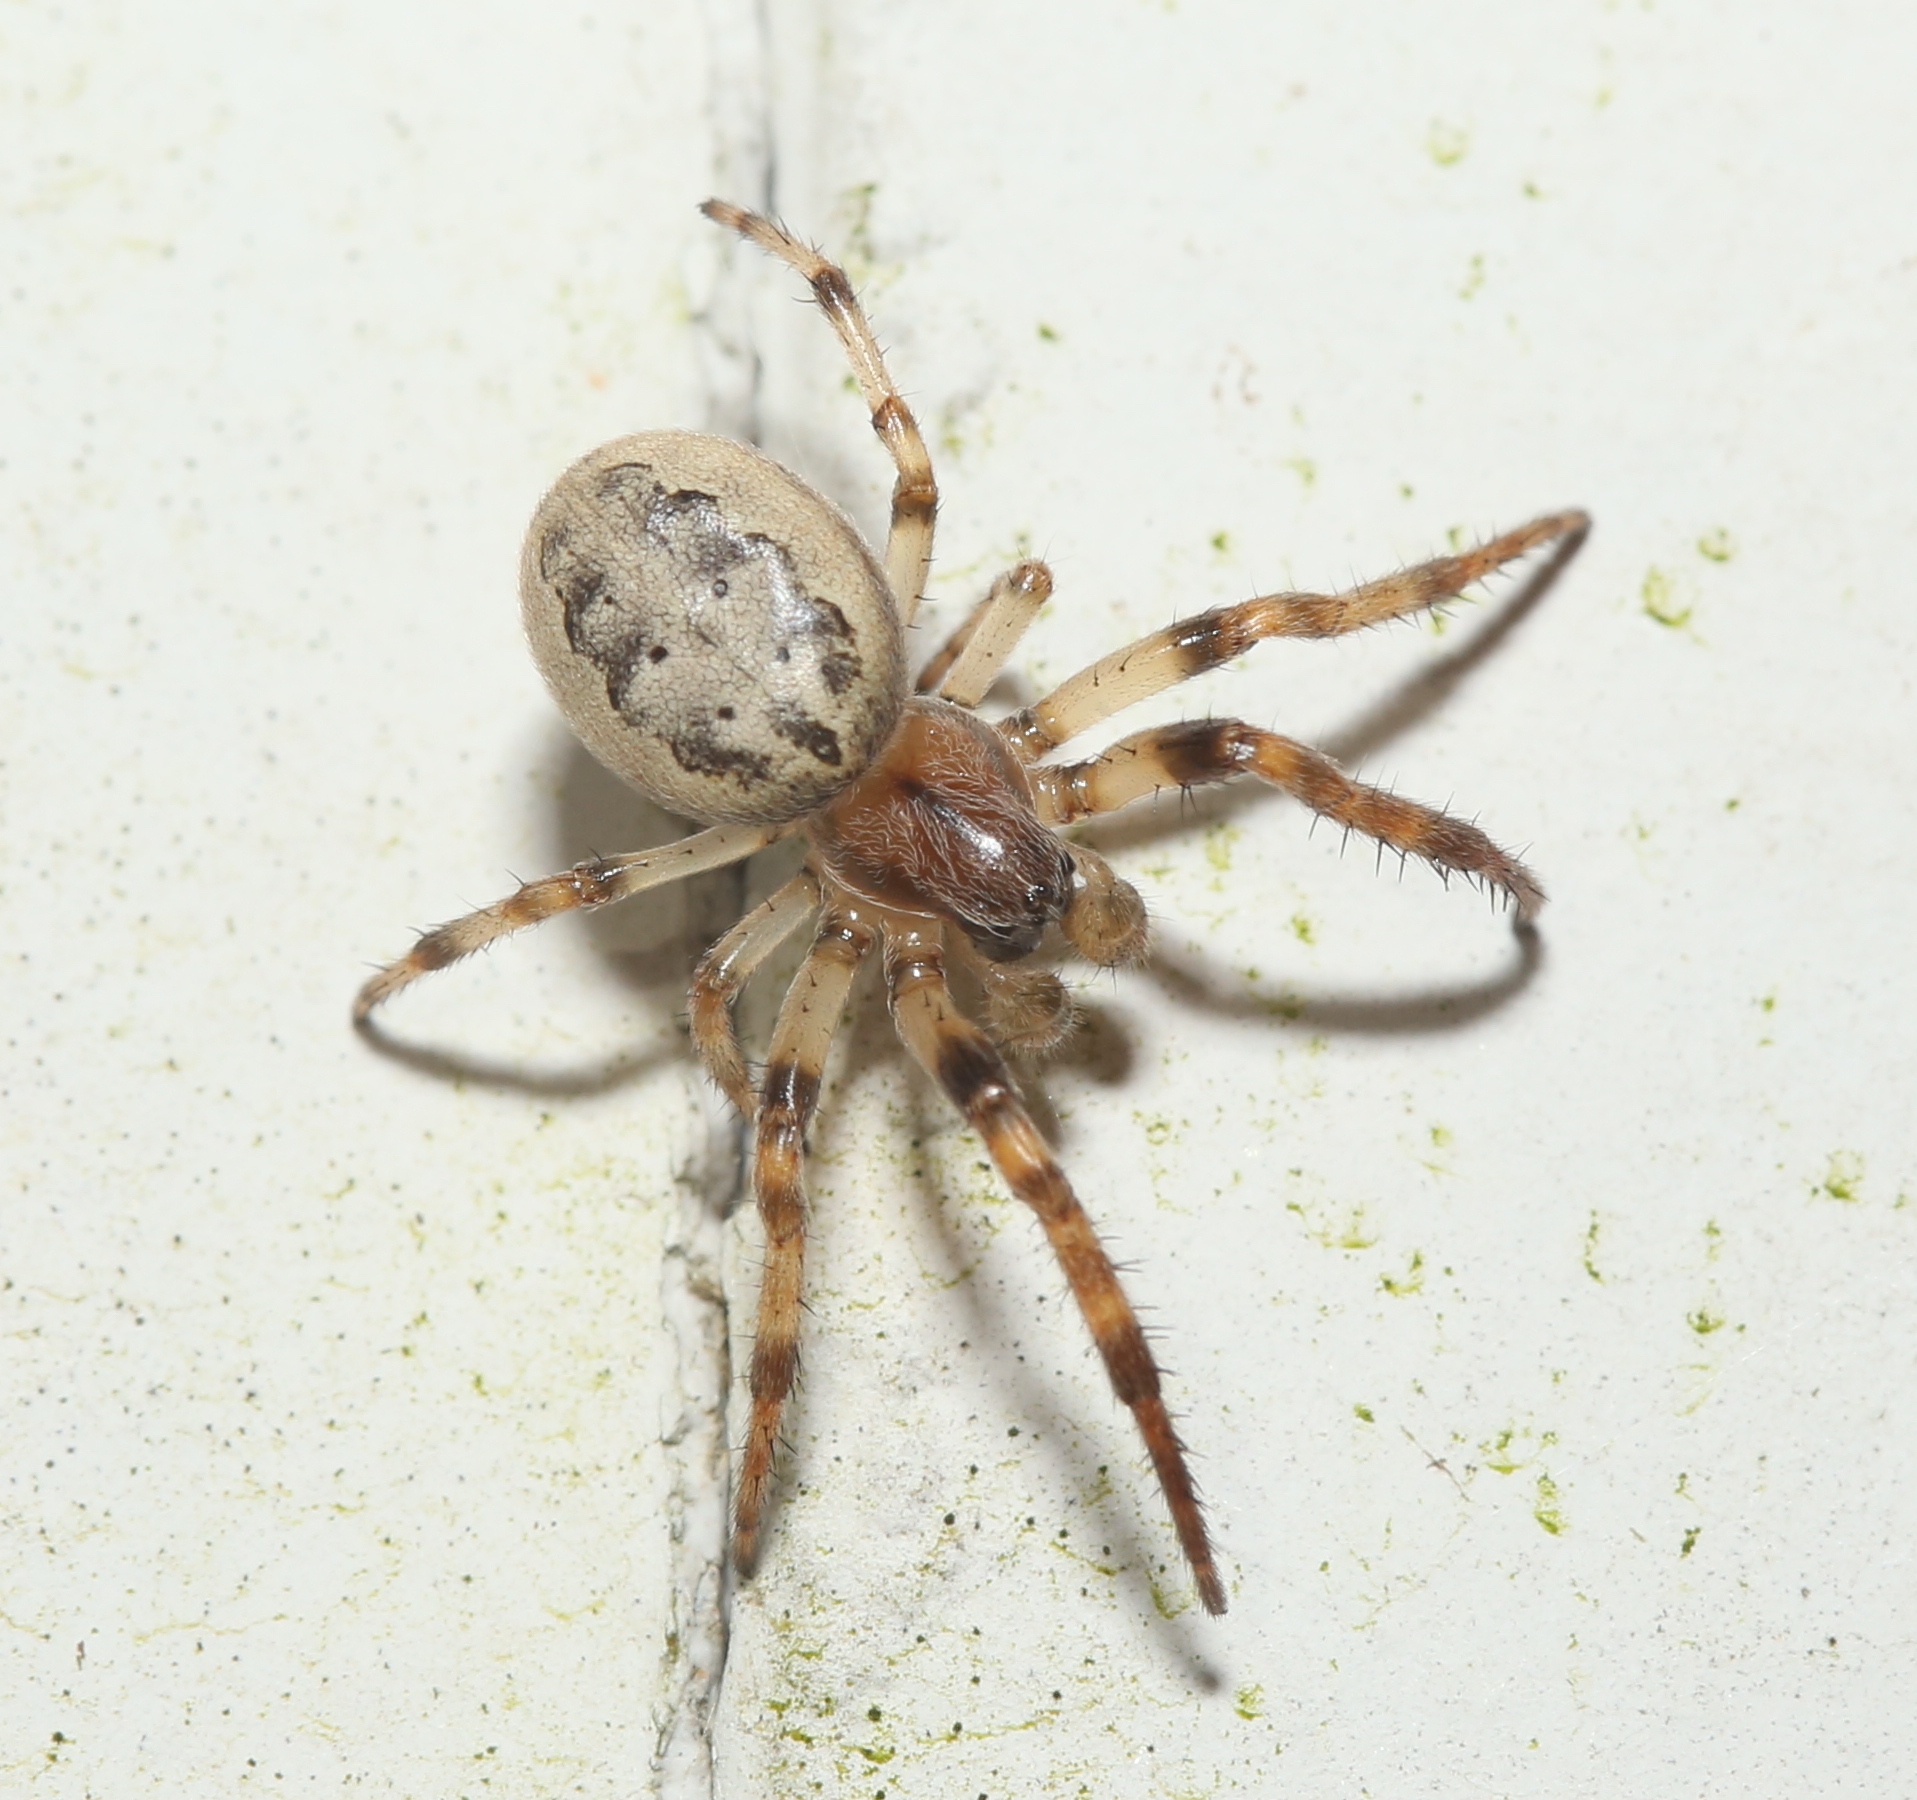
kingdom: Animalia
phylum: Arthropoda
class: Arachnida
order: Araneae
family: Araneidae
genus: Larinioides
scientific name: Larinioides cornutus
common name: Furrow orbweaver
